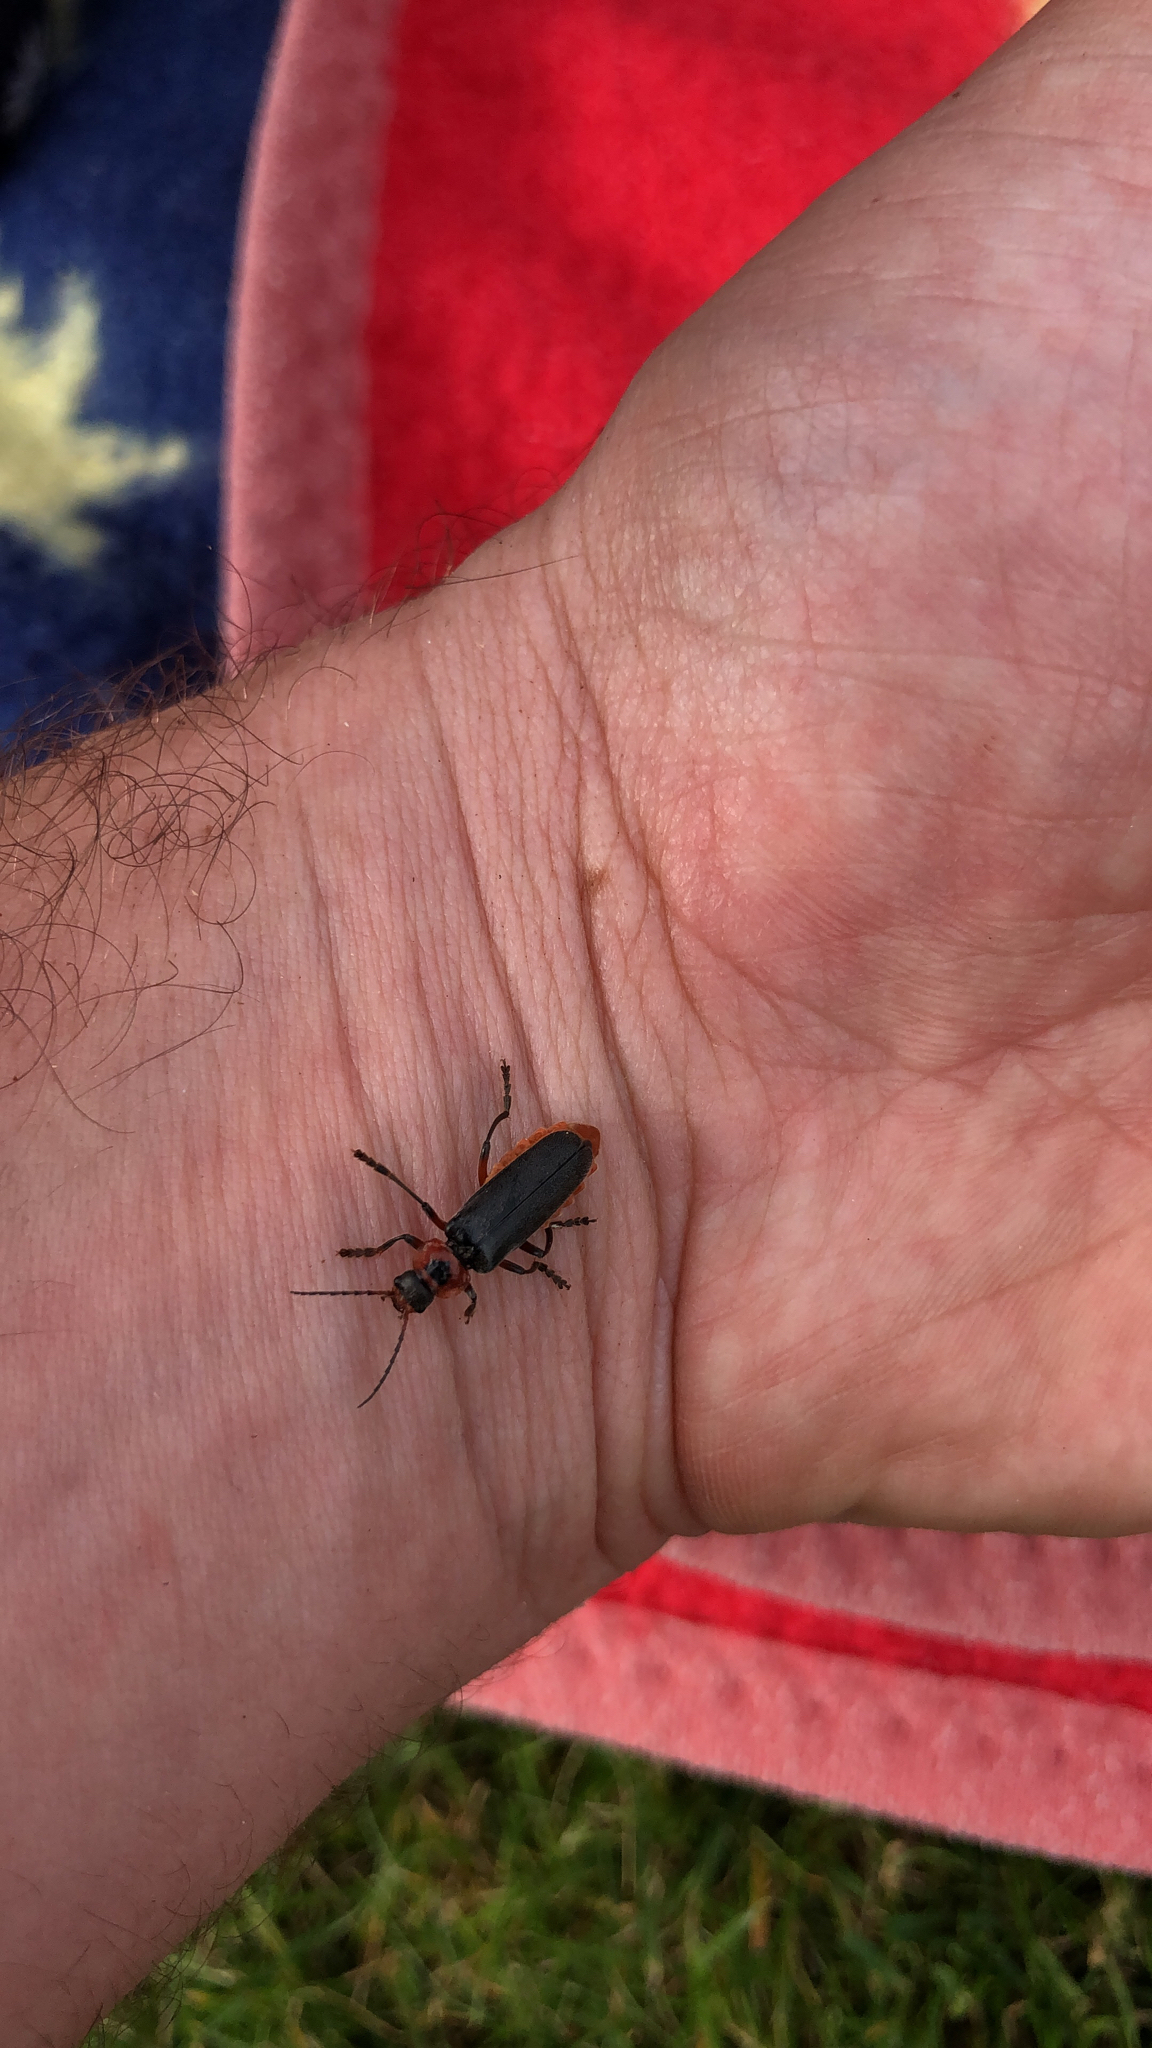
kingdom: Animalia
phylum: Arthropoda
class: Insecta
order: Coleoptera
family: Cantharidae
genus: Cantharis
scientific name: Cantharis rustica
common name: Soldier beetle
